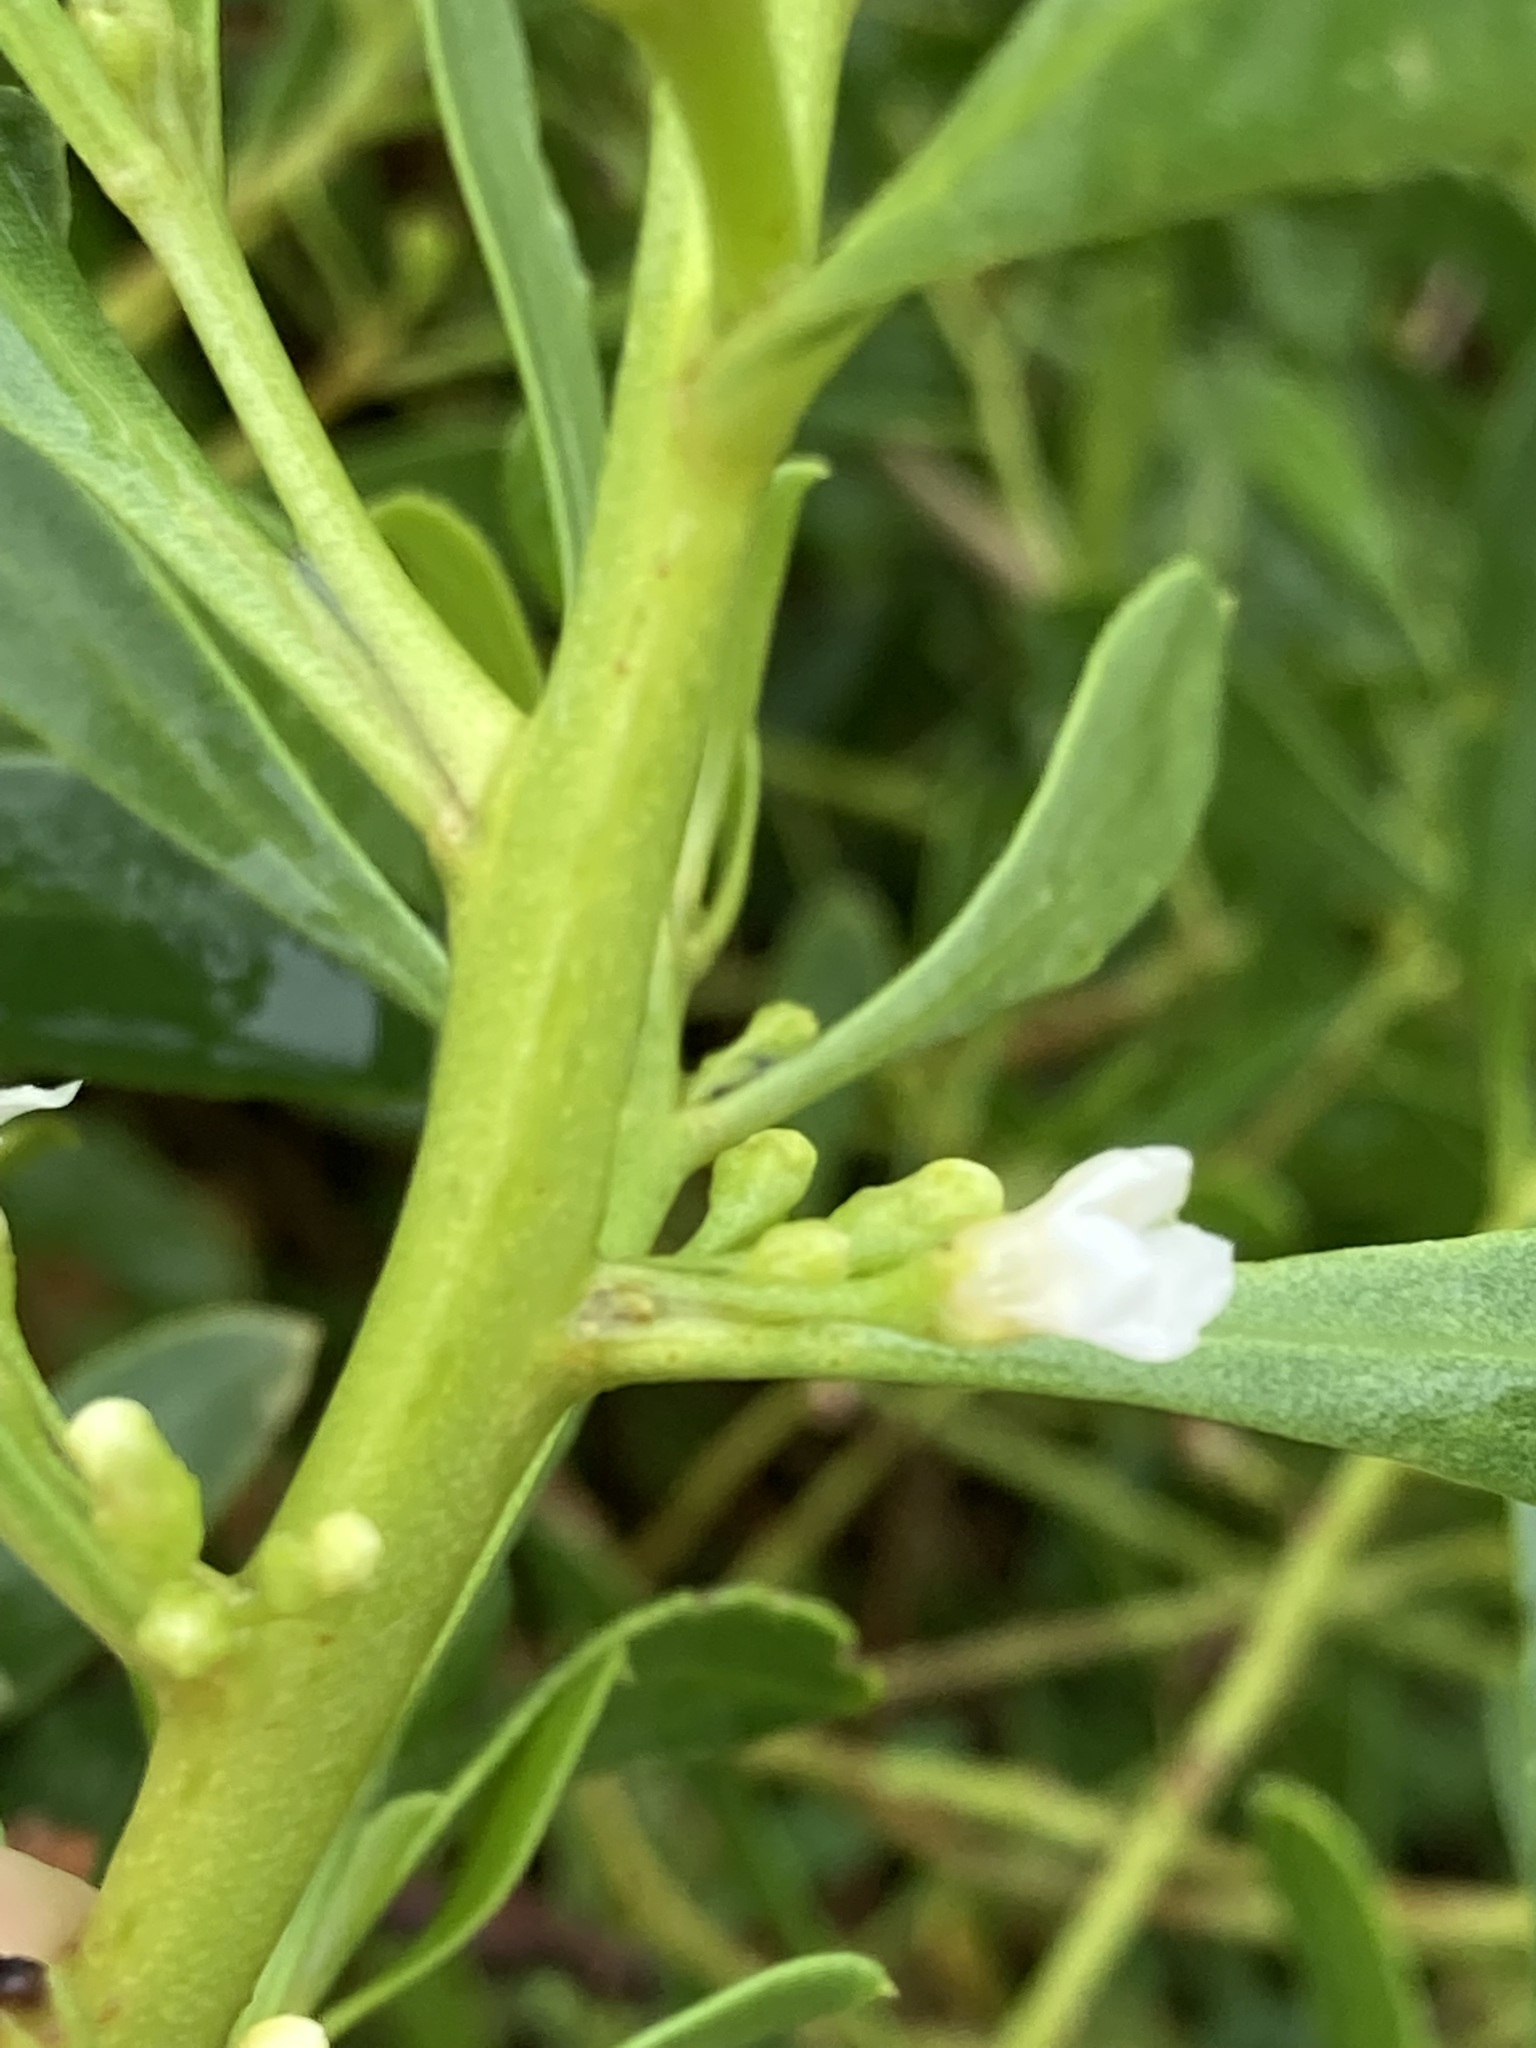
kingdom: Plantae
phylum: Tracheophyta
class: Magnoliopsida
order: Lamiales
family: Scrophulariaceae
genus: Myoporum
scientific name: Myoporum insulare
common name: Common boobialla
